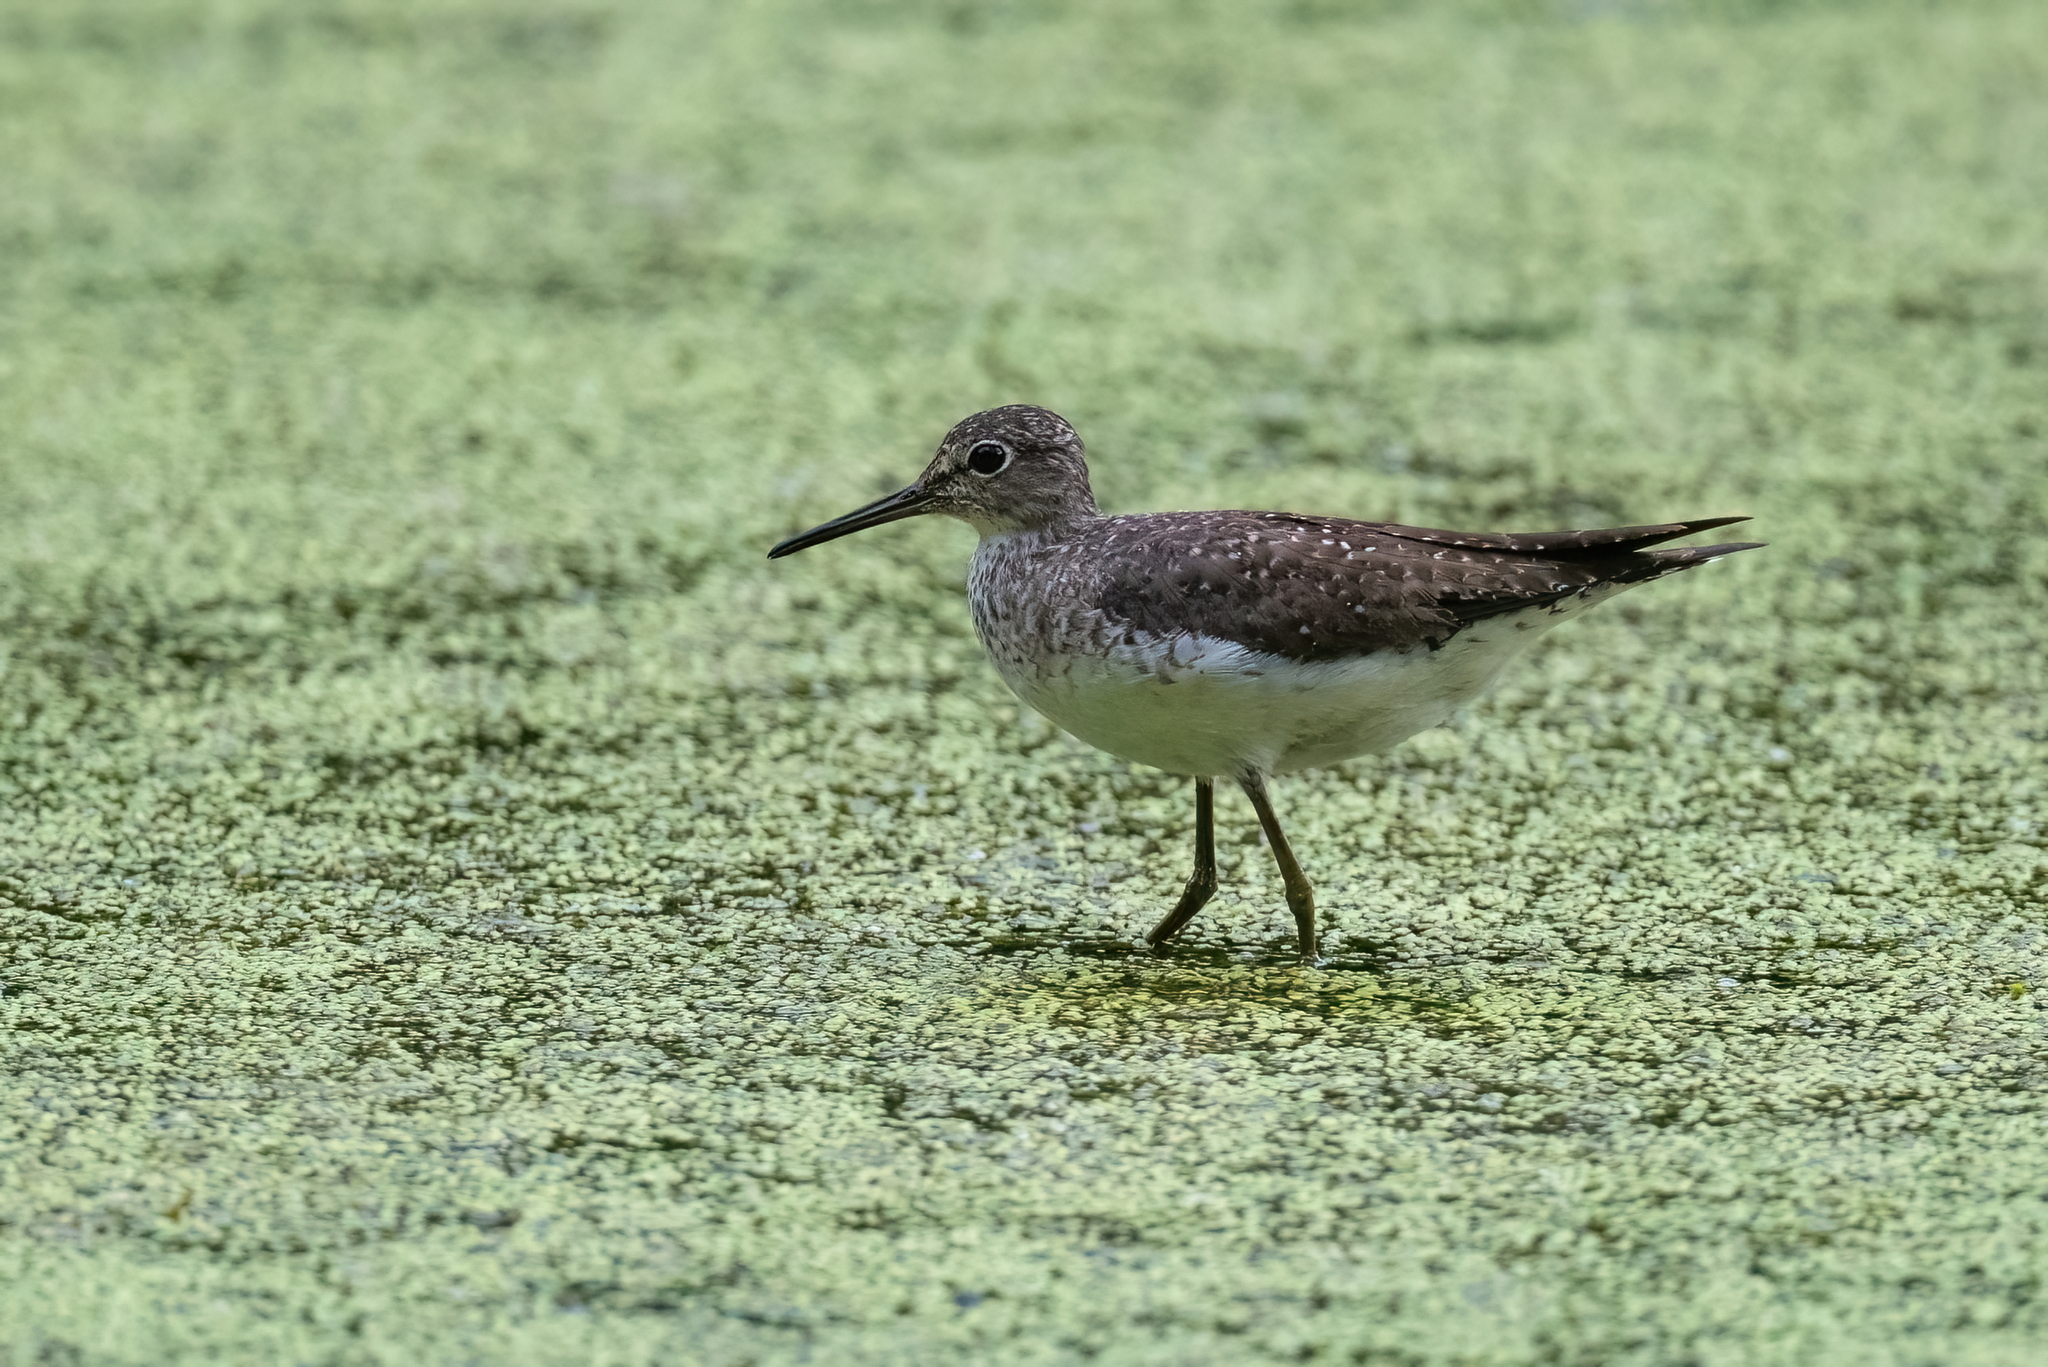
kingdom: Animalia
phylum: Chordata
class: Aves
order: Charadriiformes
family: Scolopacidae
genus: Tringa
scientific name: Tringa solitaria
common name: Solitary sandpiper
